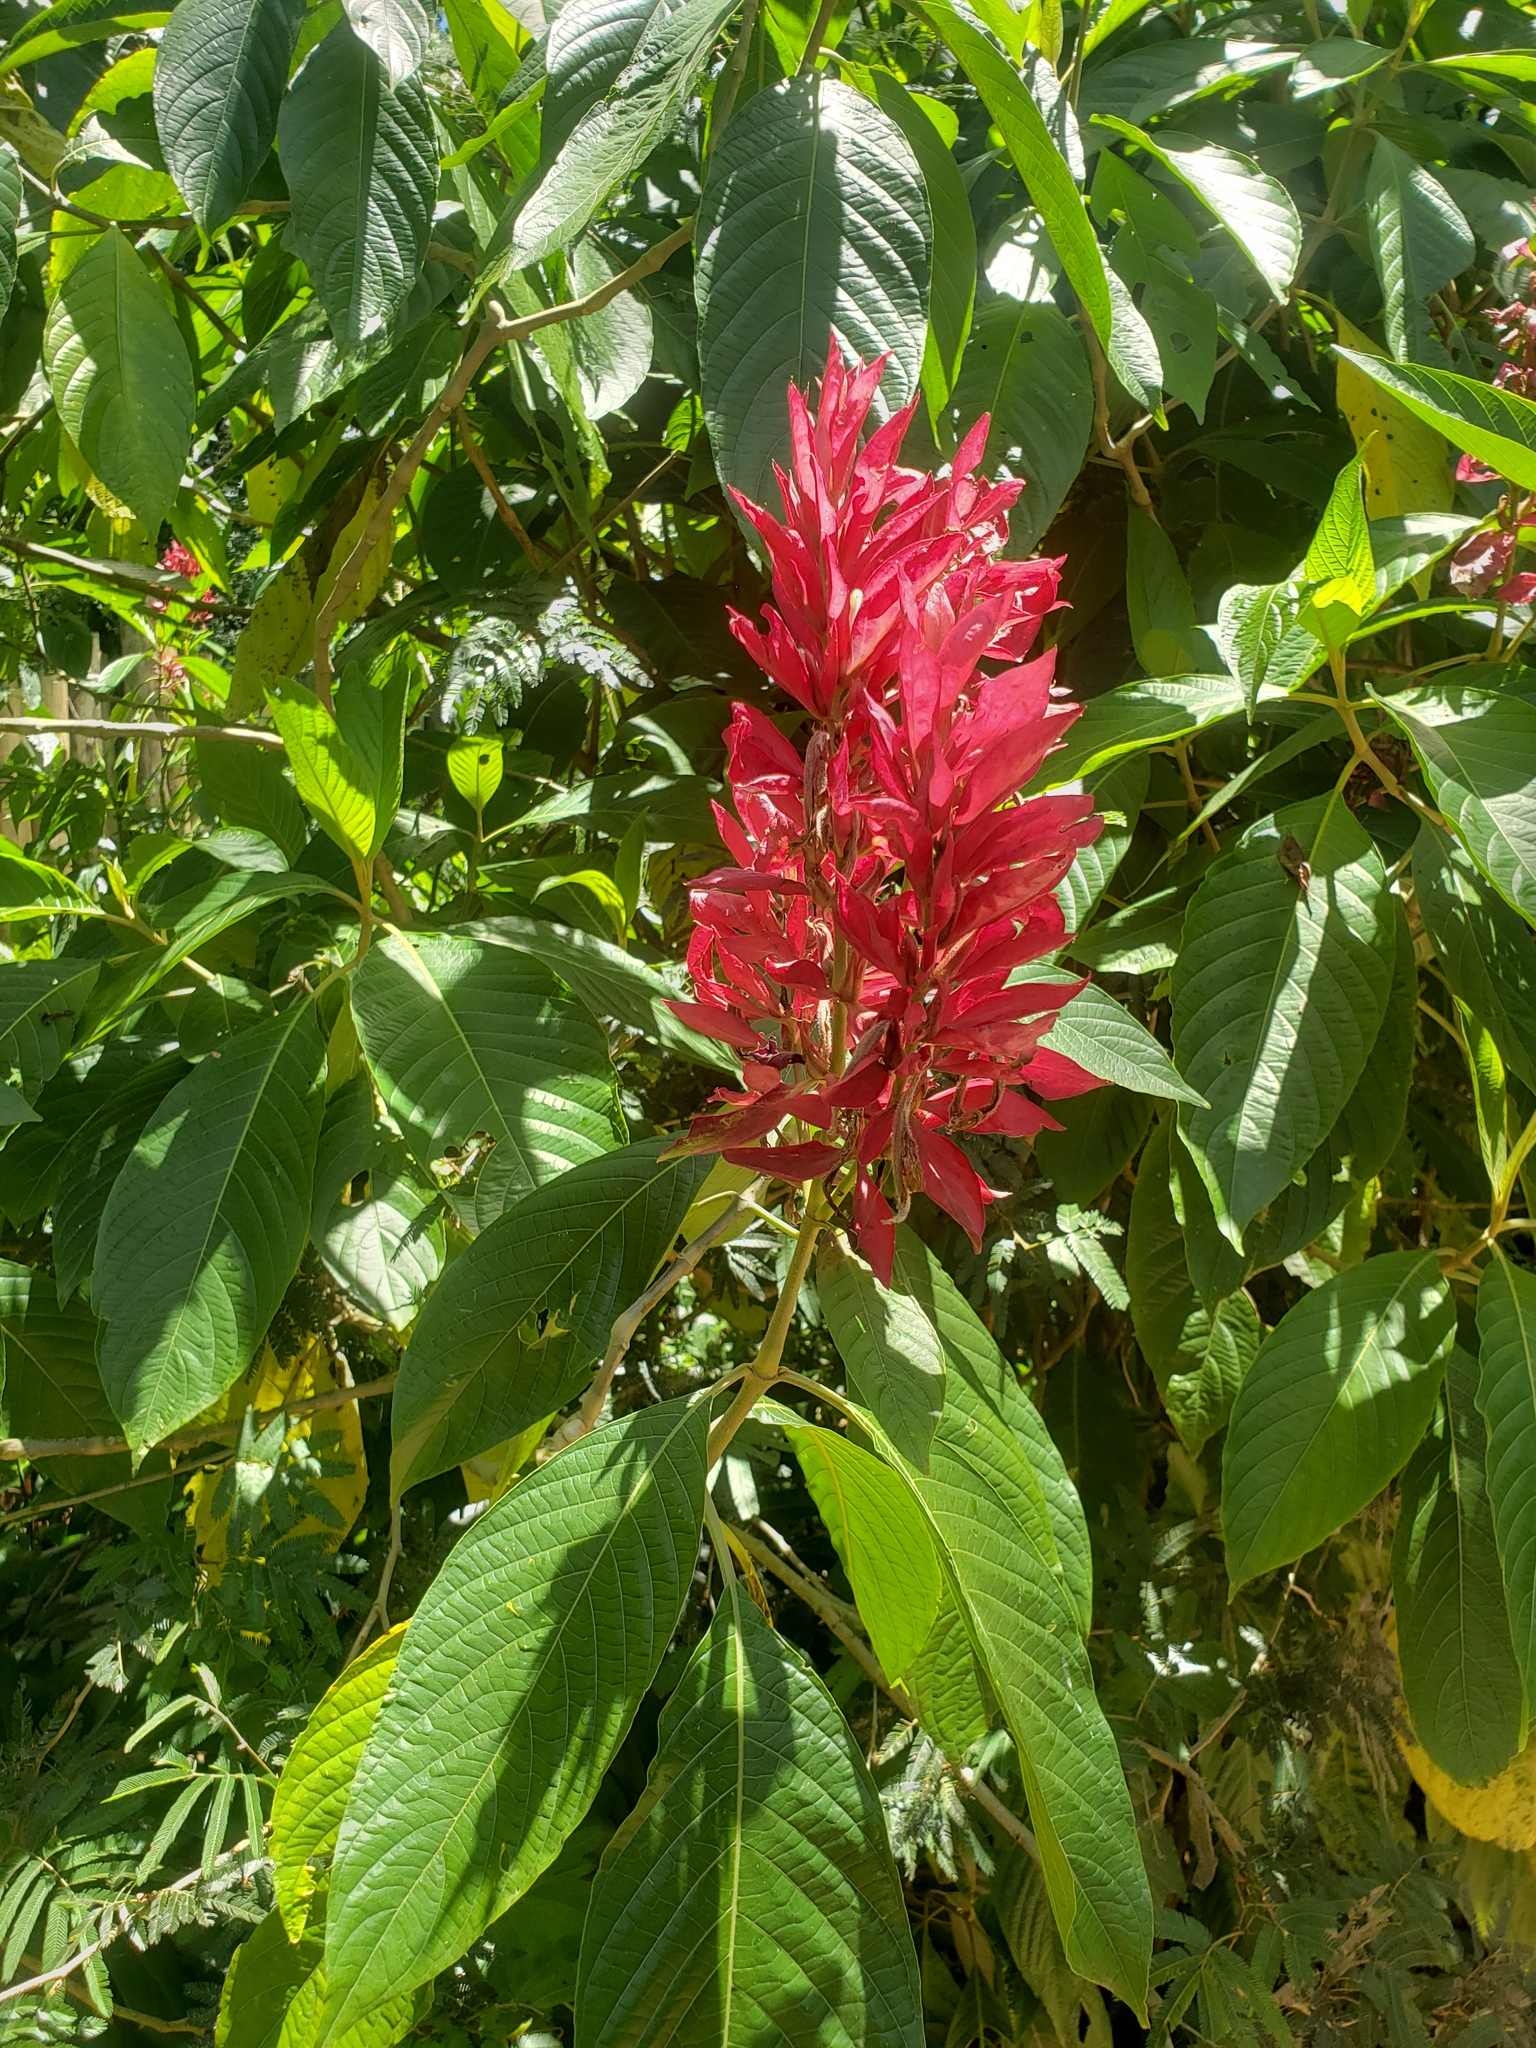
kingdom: Plantae
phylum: Tracheophyta
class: Magnoliopsida
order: Lamiales
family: Acanthaceae
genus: Megaskepasma
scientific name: Megaskepasma erythrochlamys
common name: Brazilian red-cloak
